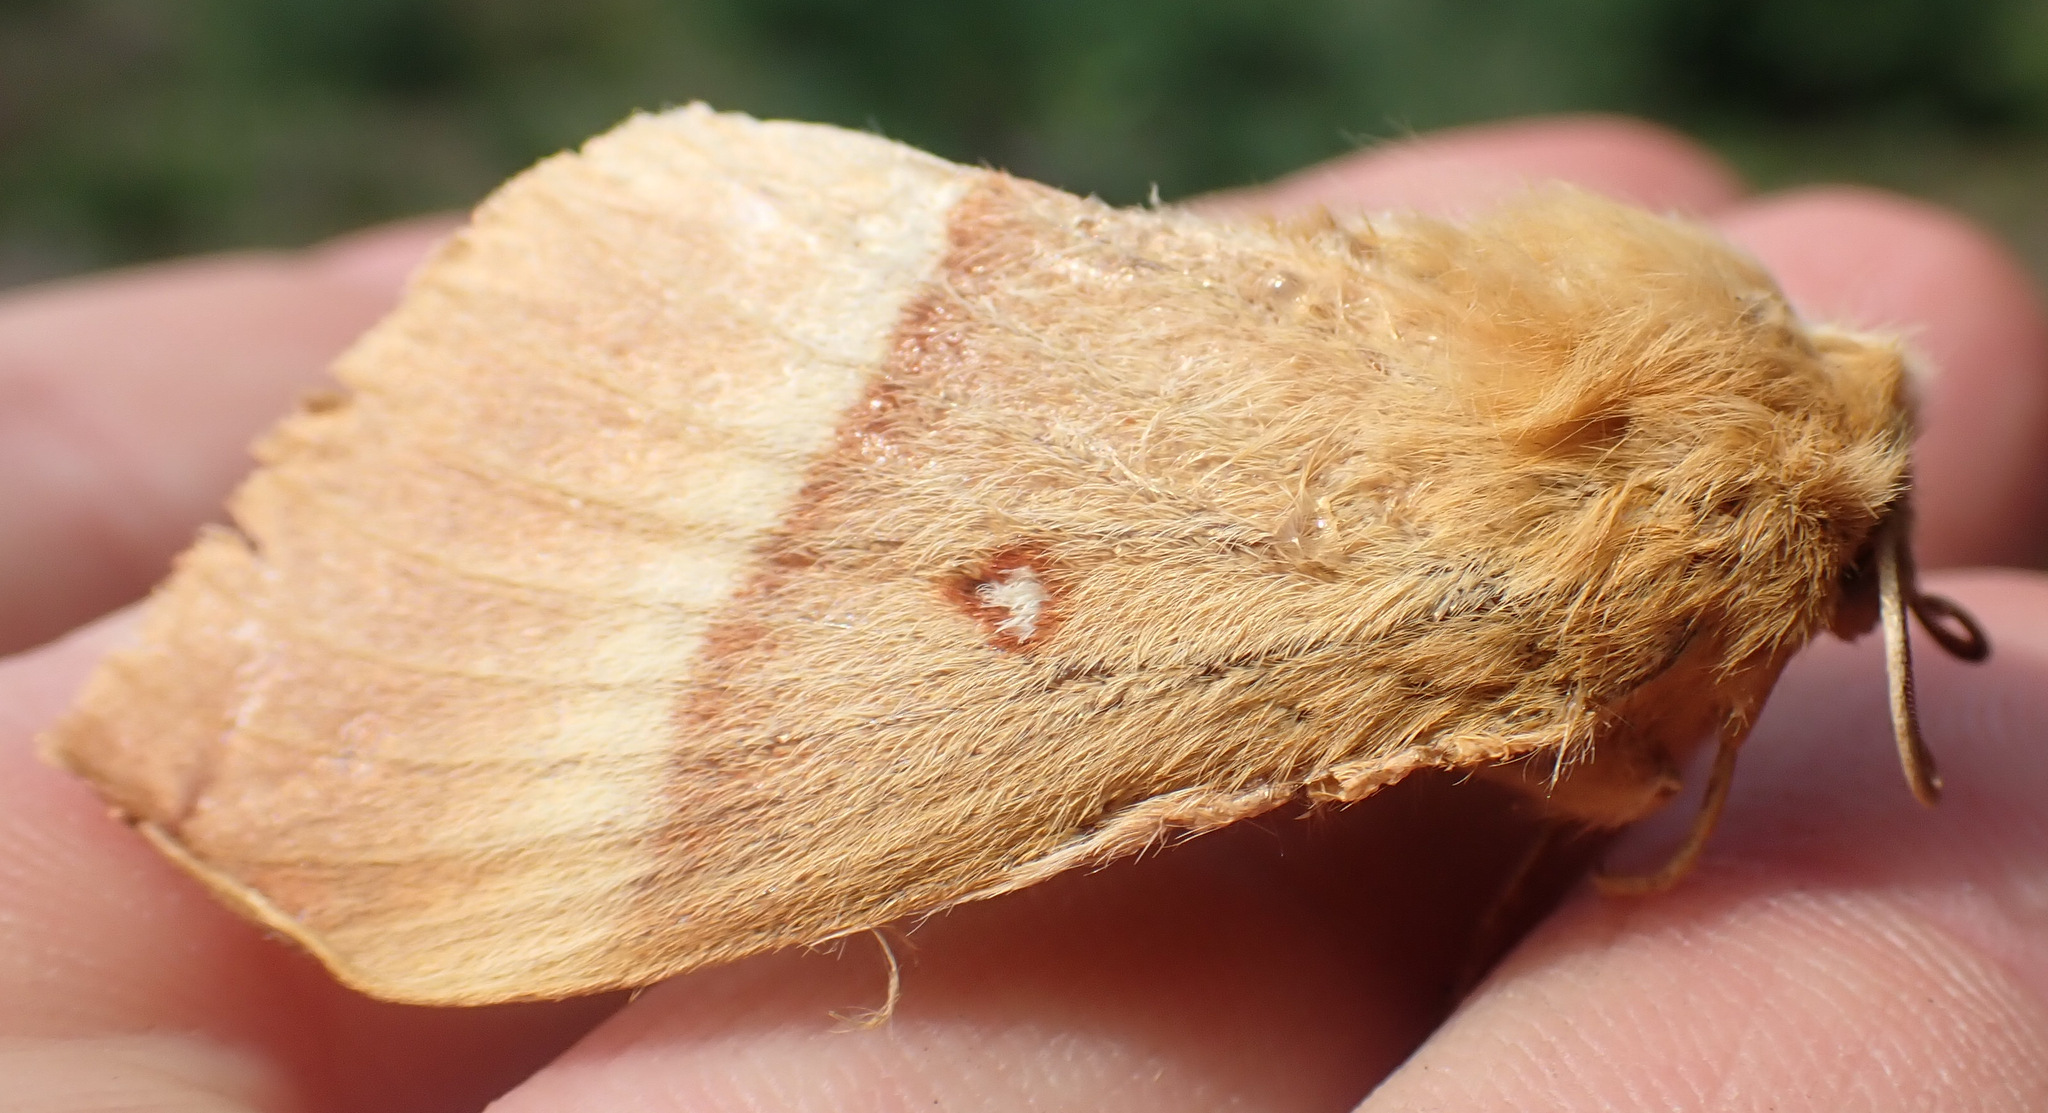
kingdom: Animalia
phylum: Arthropoda
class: Insecta
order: Lepidoptera
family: Lasiocampidae
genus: Lasiocampa
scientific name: Lasiocampa quercus
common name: Oak eggar
